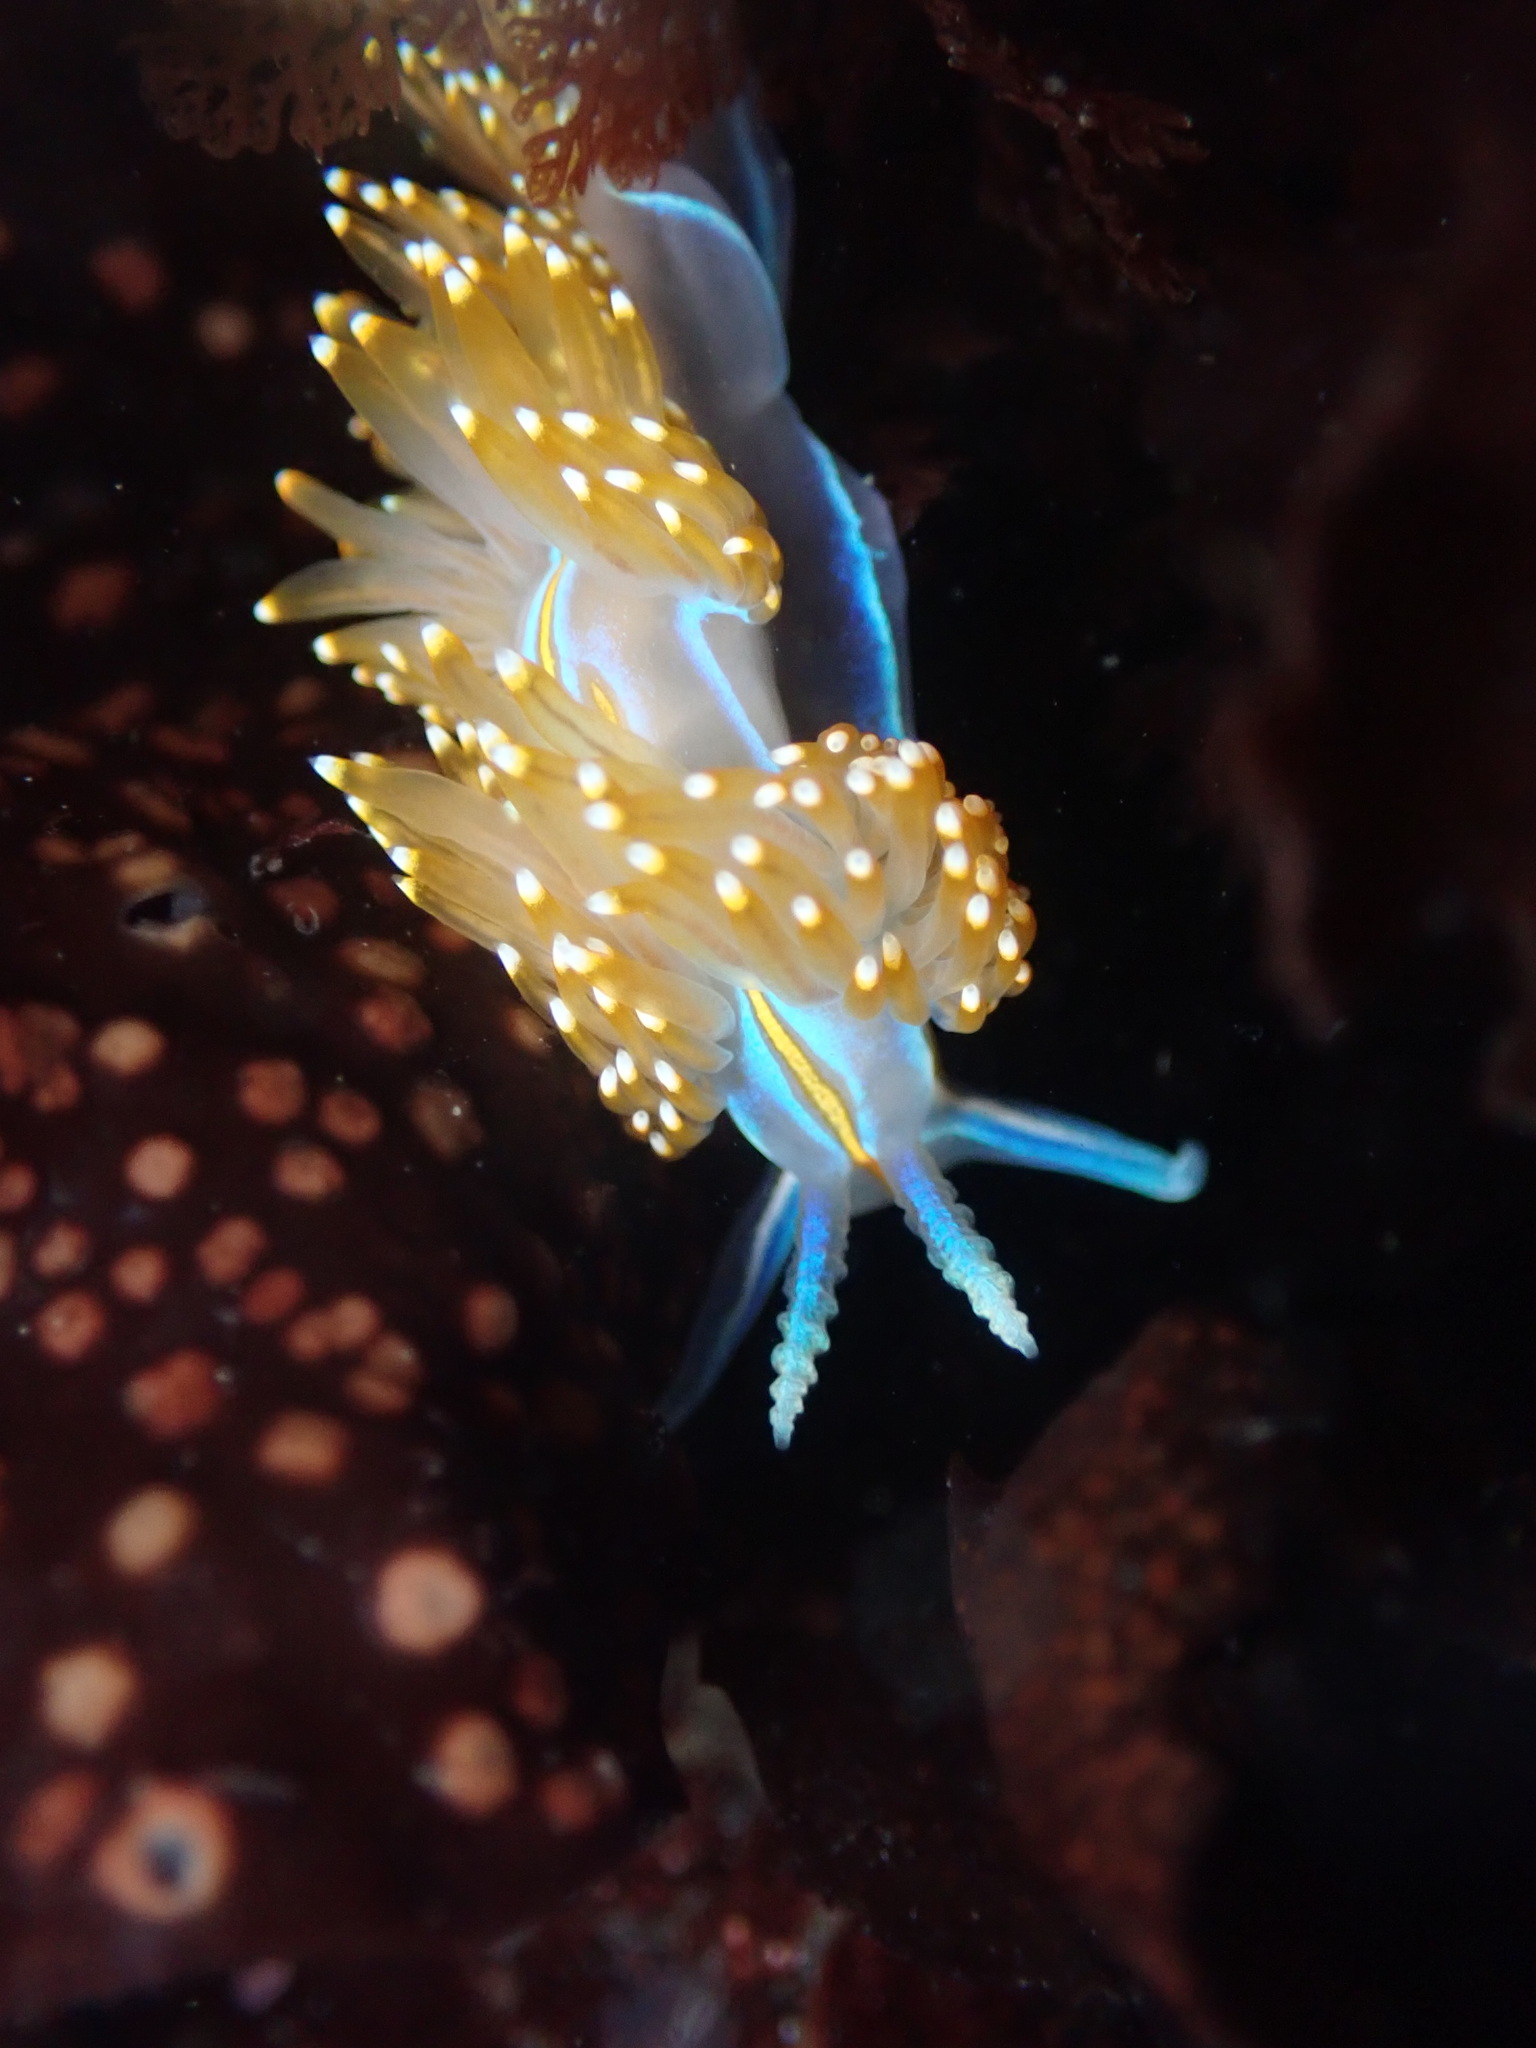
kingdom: Animalia
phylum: Mollusca
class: Gastropoda
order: Nudibranchia
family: Myrrhinidae
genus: Hermissenda
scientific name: Hermissenda opalescens
